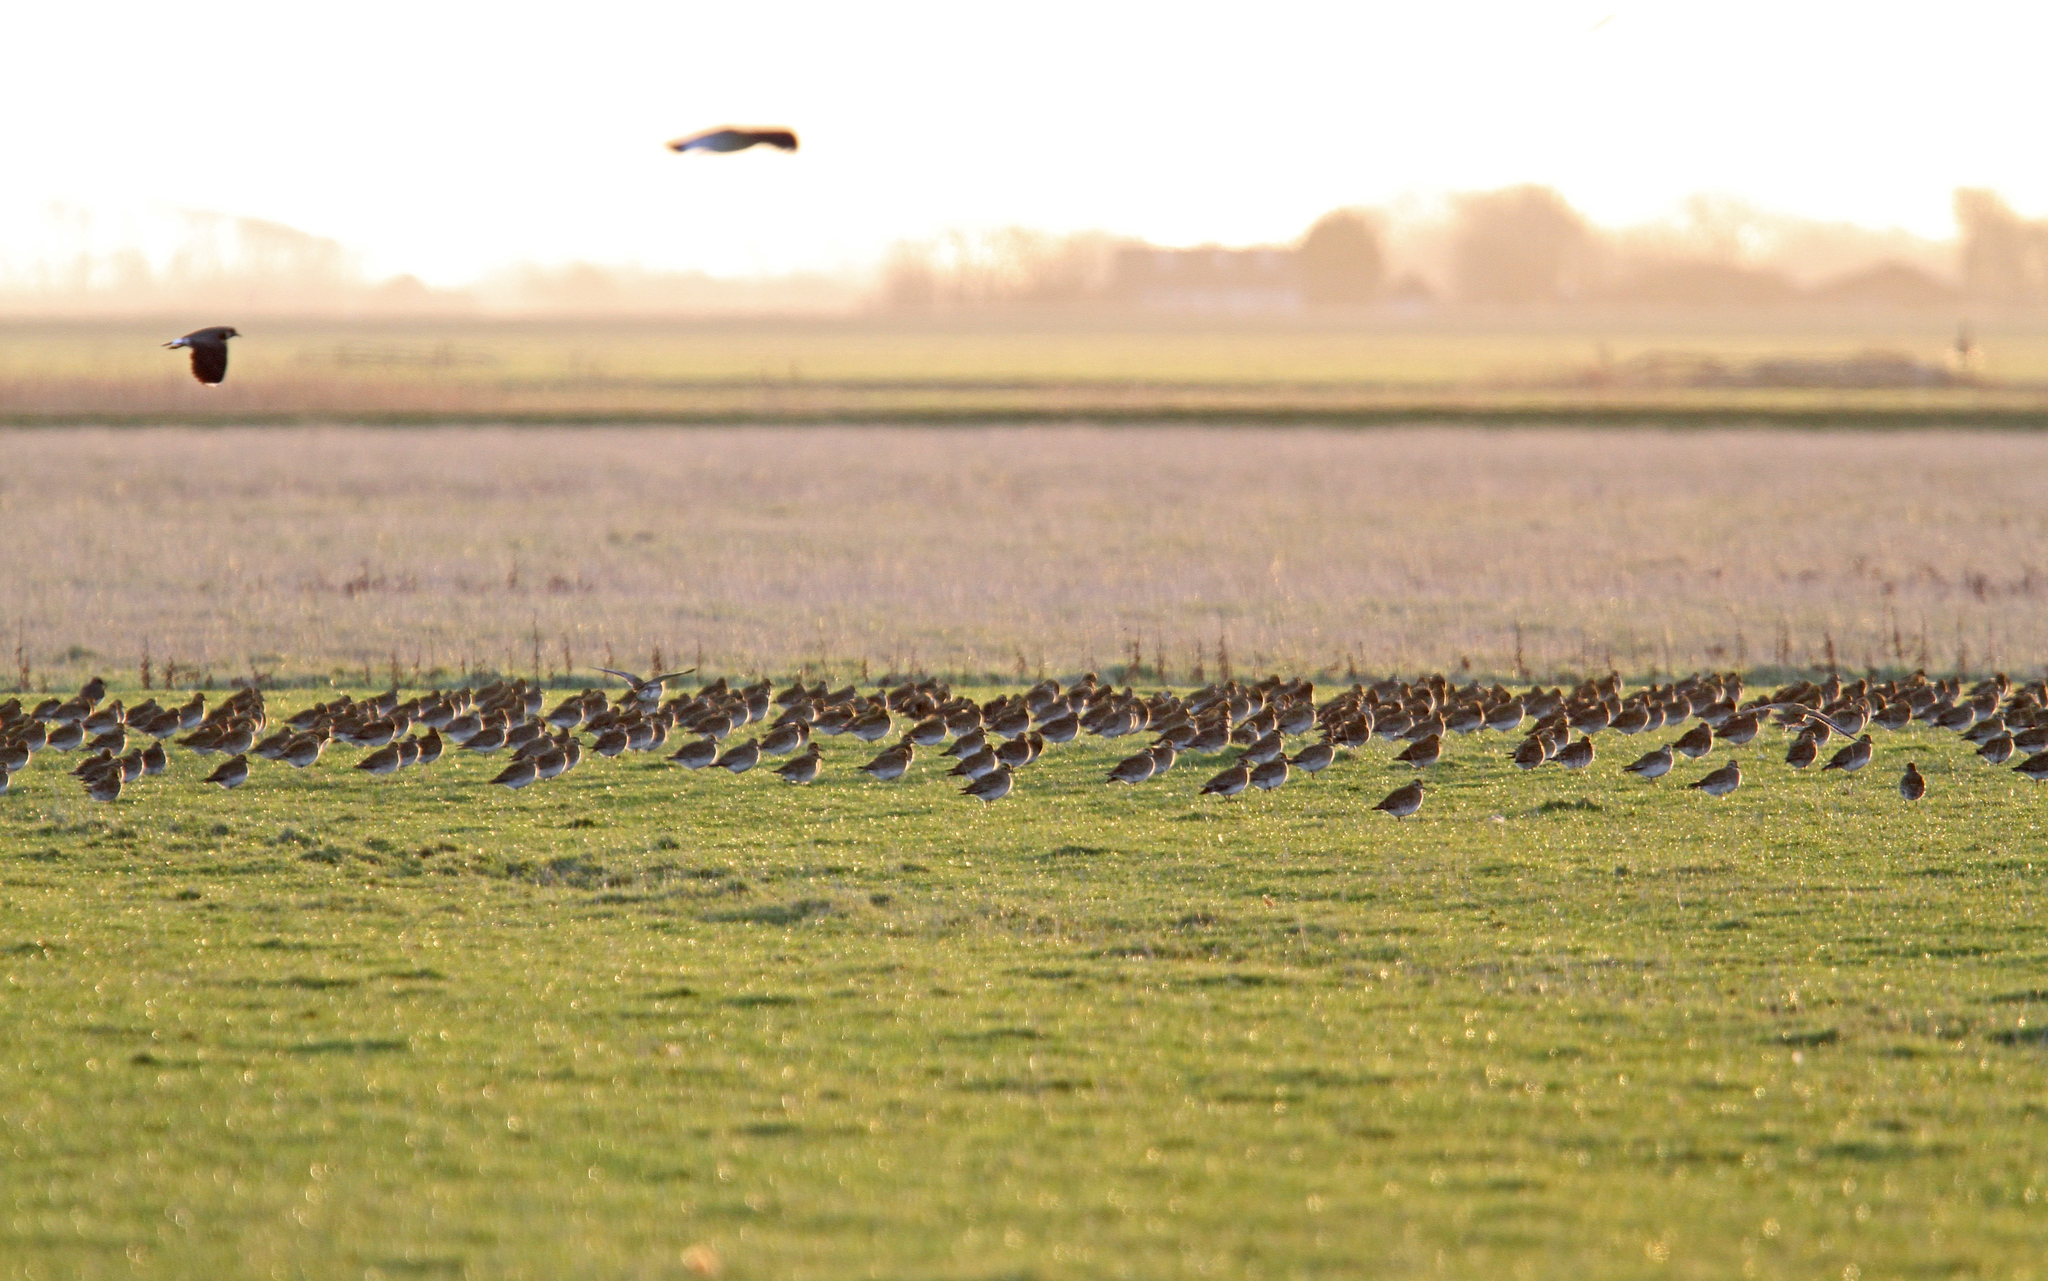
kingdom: Animalia
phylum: Chordata
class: Aves
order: Charadriiformes
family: Charadriidae
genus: Pluvialis
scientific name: Pluvialis apricaria
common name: European golden plover
